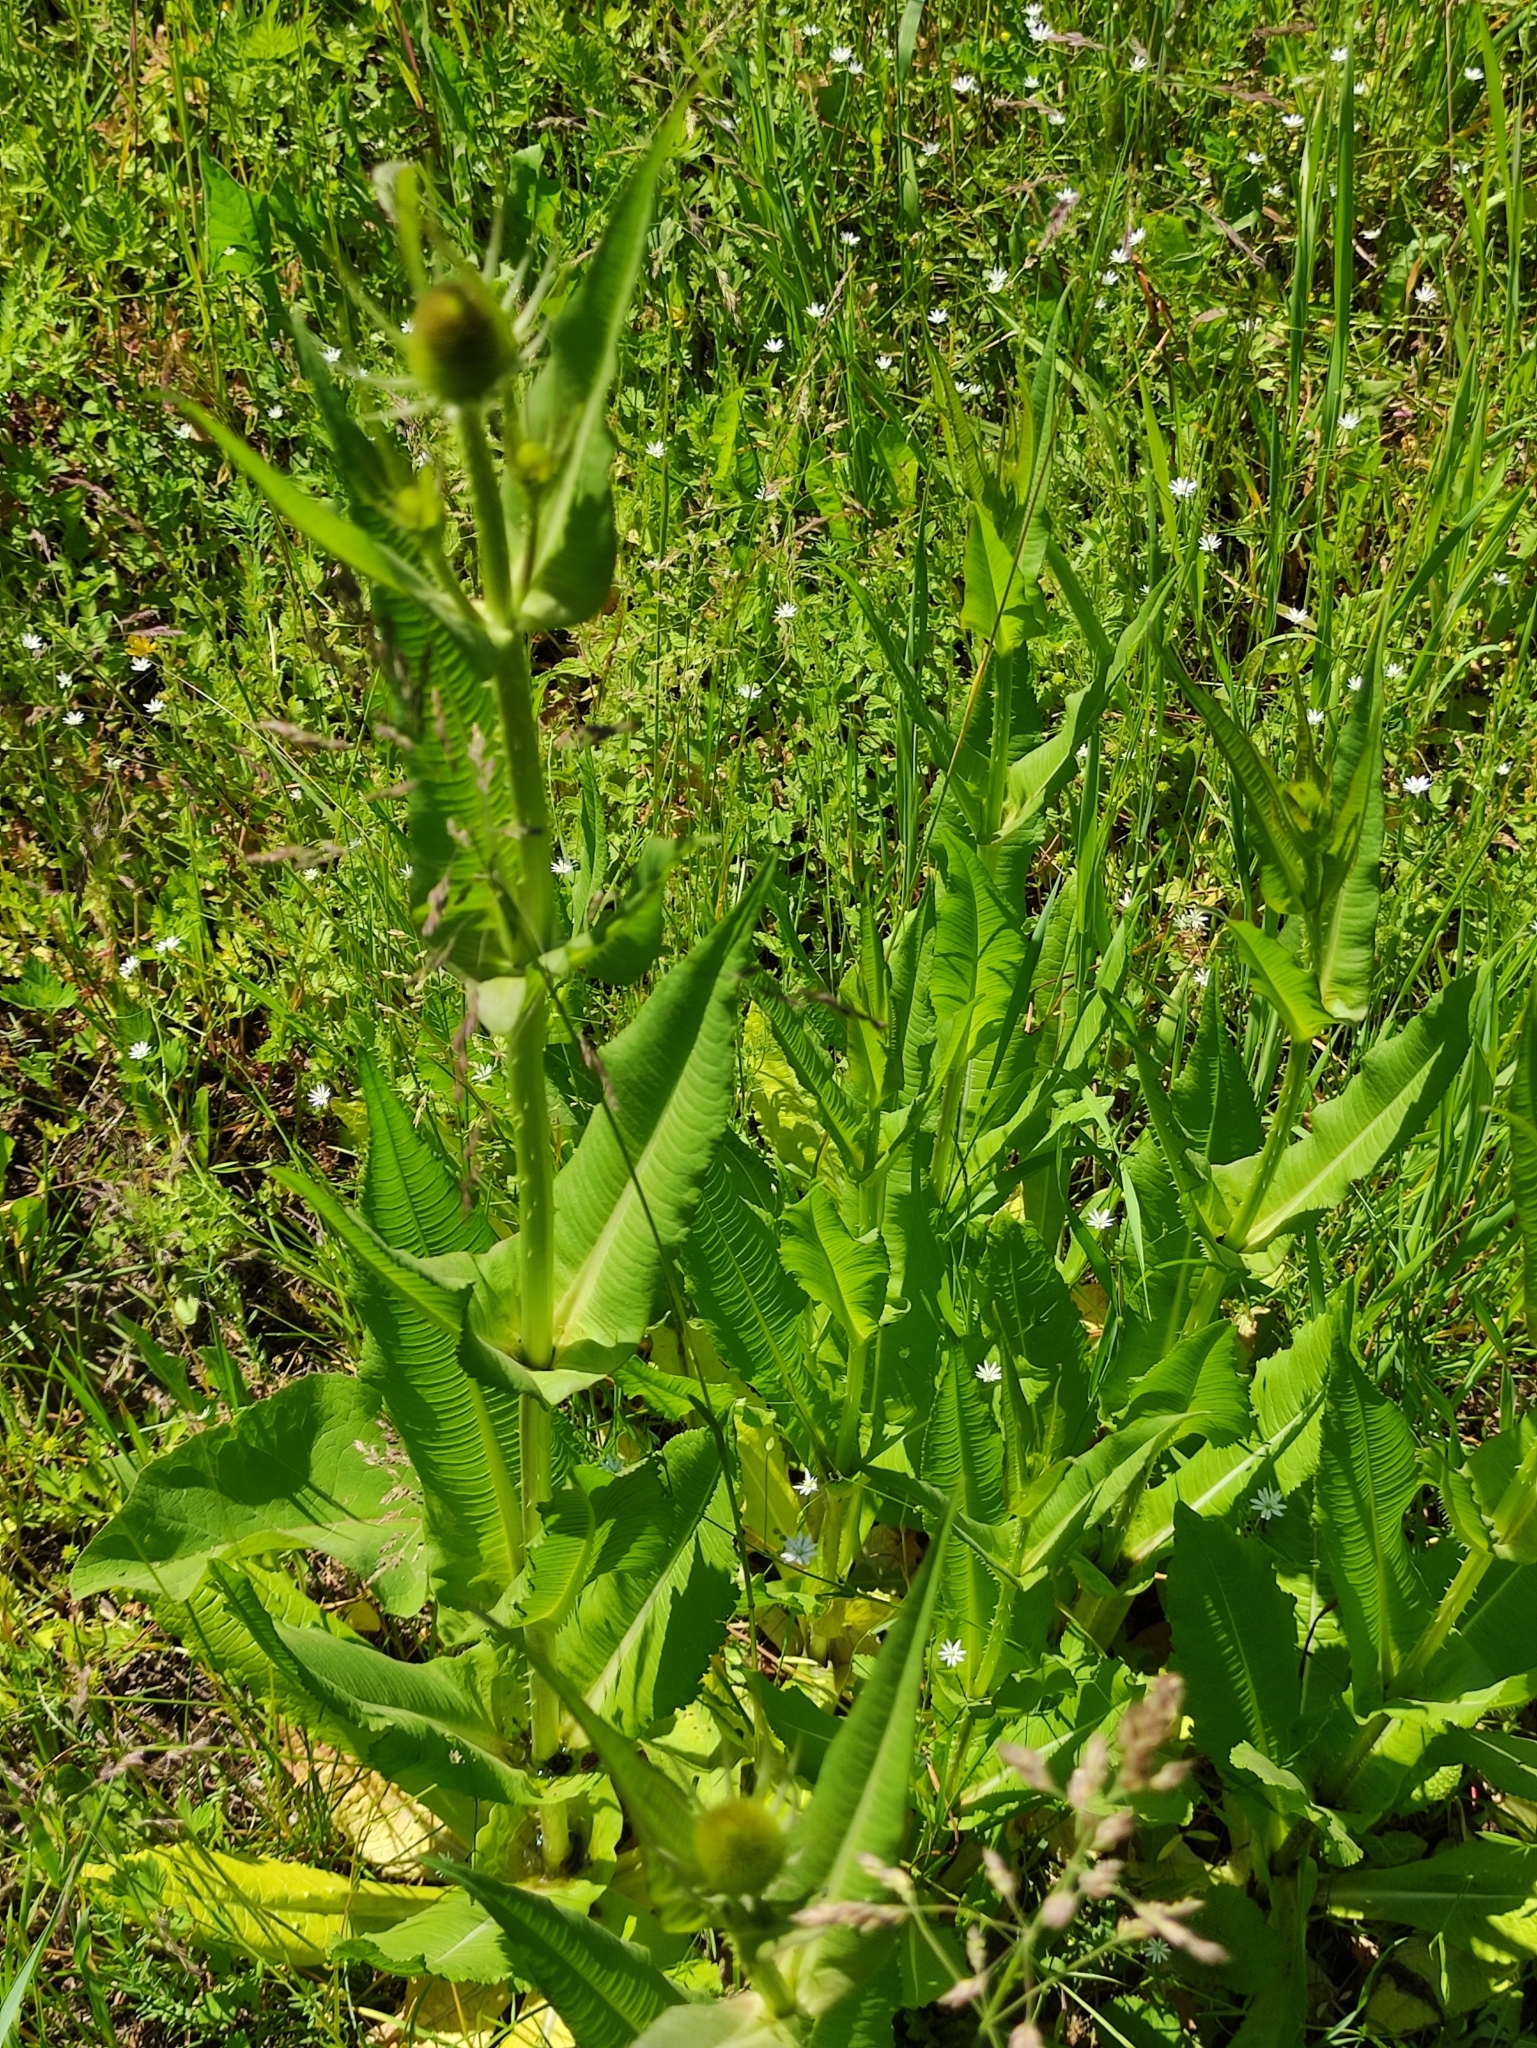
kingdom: Plantae
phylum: Tracheophyta
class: Magnoliopsida
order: Dipsacales
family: Caprifoliaceae
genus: Dipsacus
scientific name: Dipsacus fullonum
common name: Teasel
